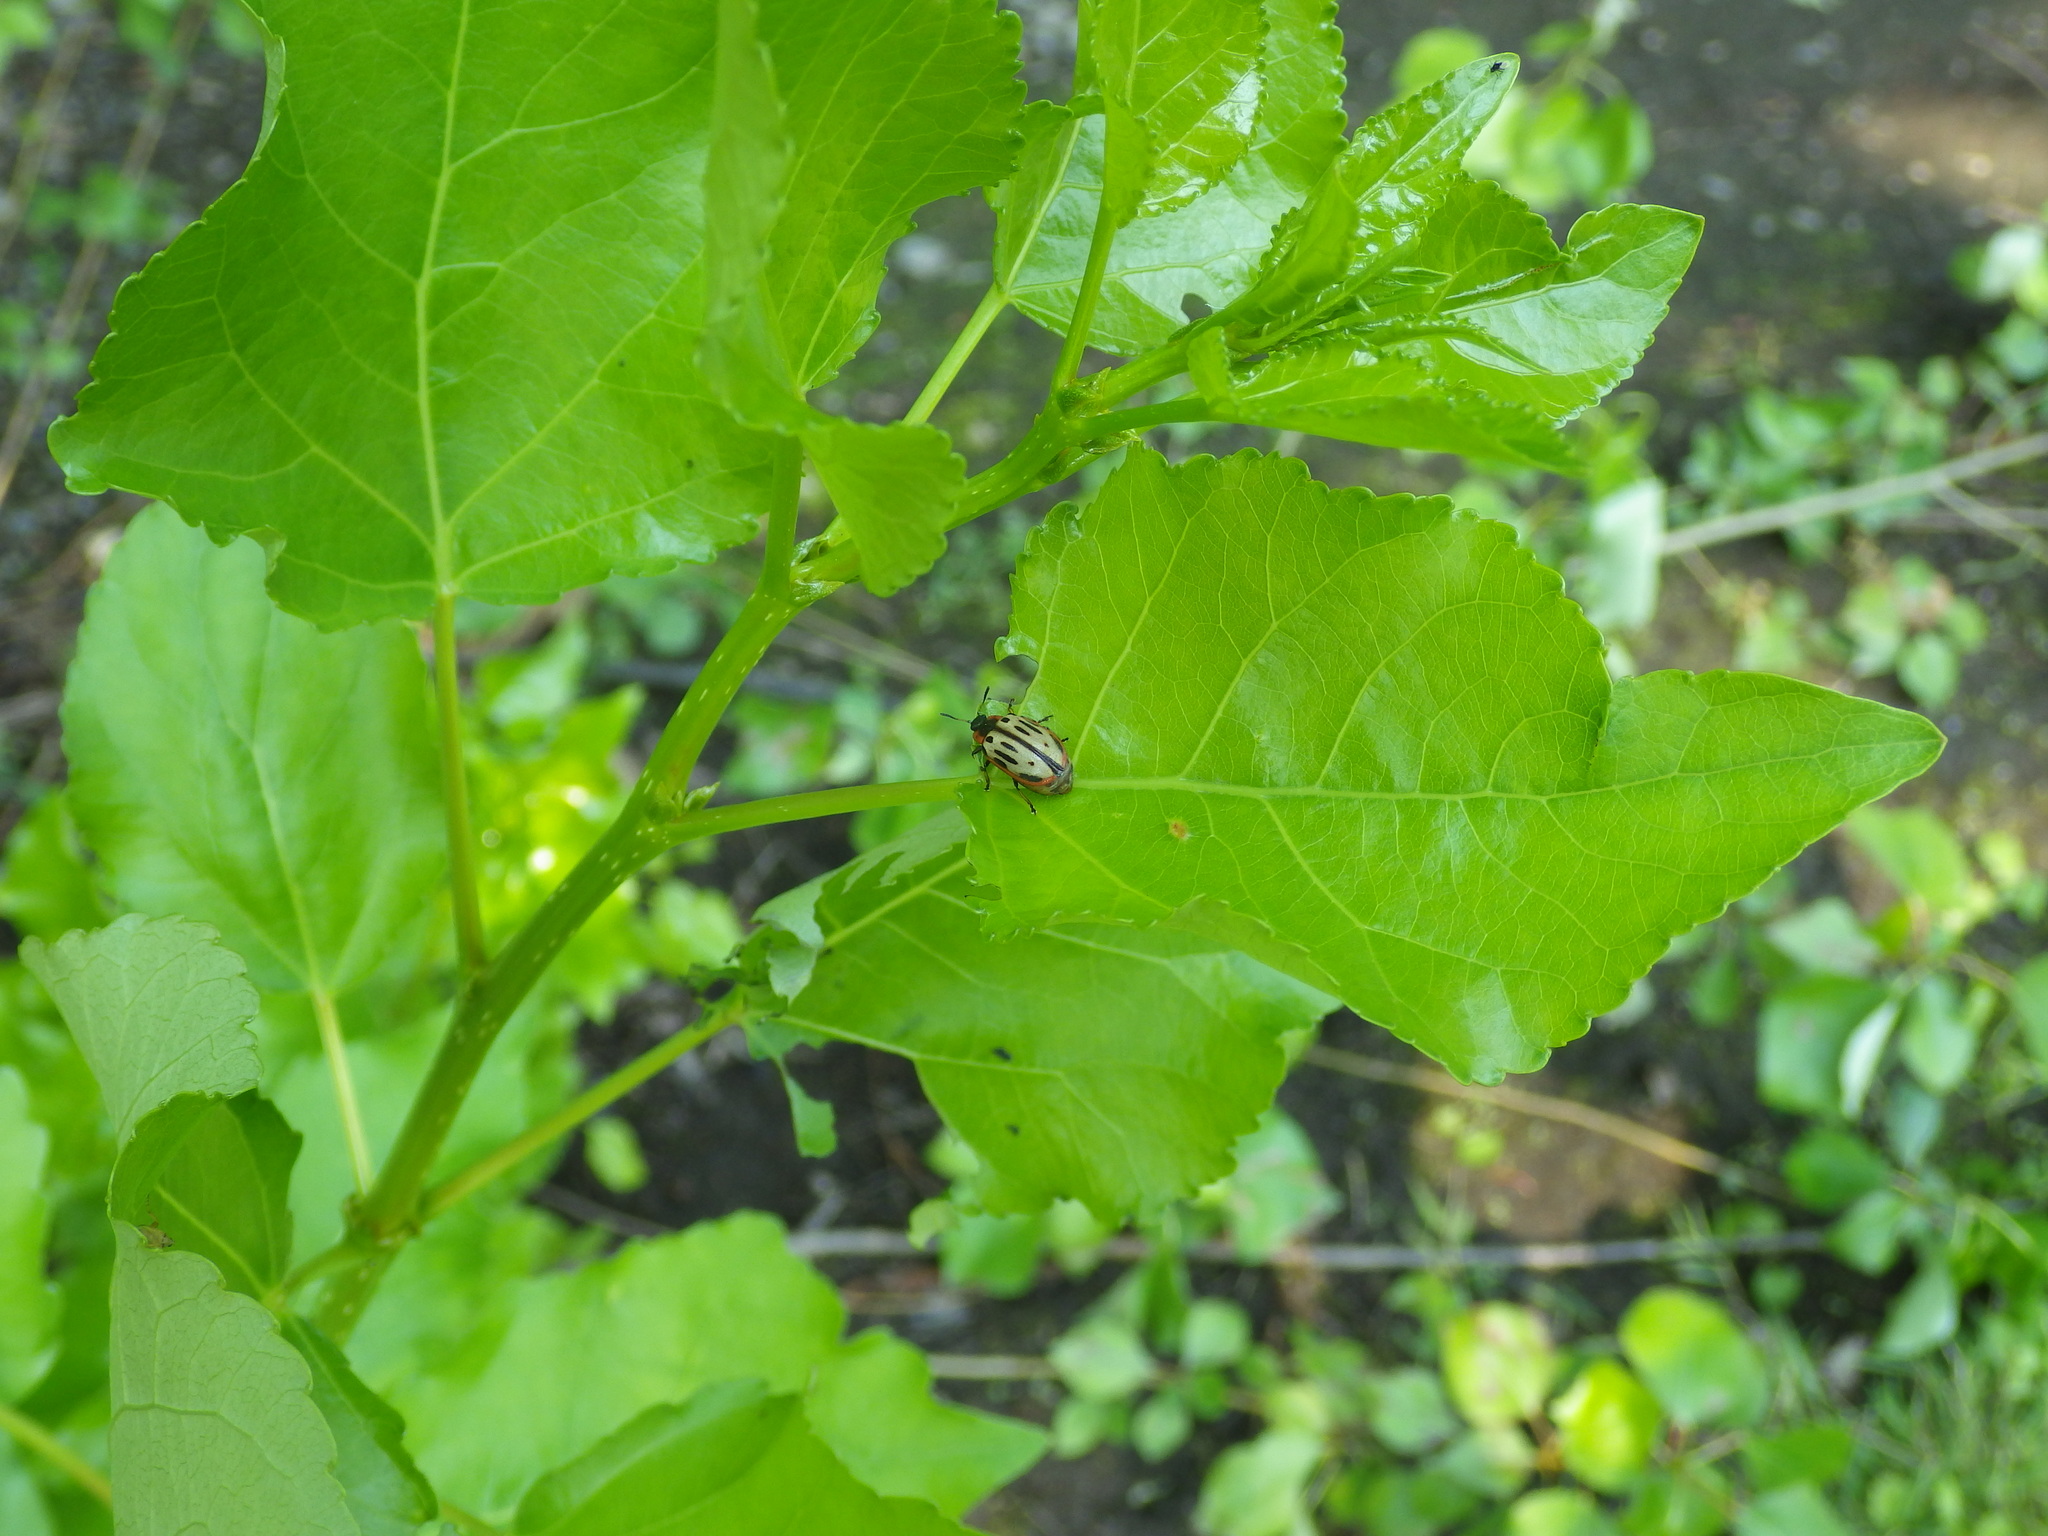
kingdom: Animalia
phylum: Arthropoda
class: Insecta
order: Coleoptera
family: Chrysomelidae
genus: Aethiopocassis
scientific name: Aethiopocassis scripta
